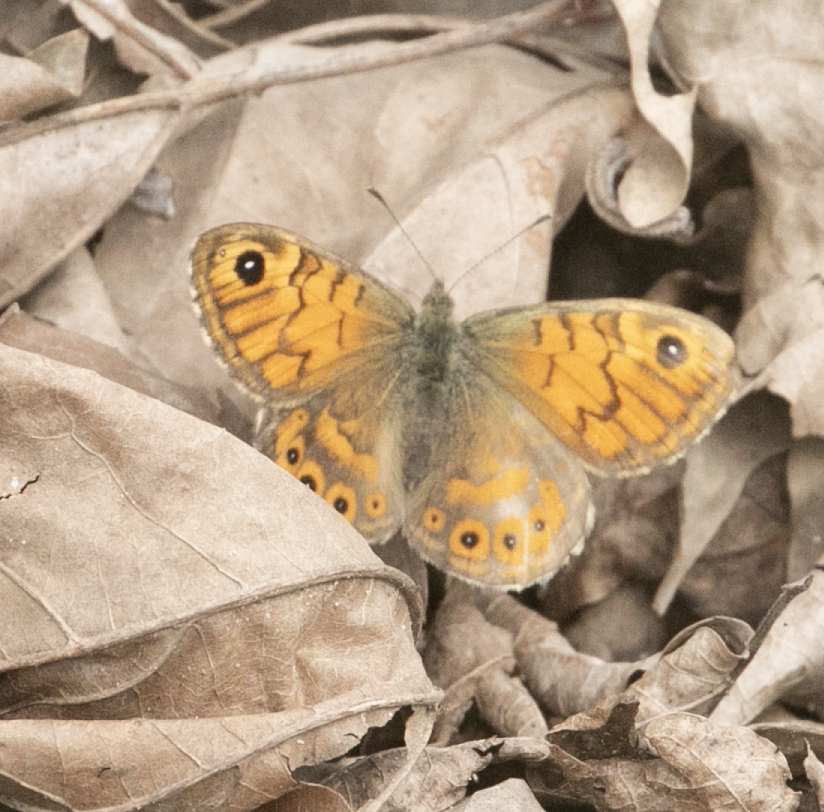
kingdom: Animalia
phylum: Arthropoda
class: Insecta
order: Lepidoptera
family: Nymphalidae
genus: Pararge
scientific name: Pararge Lasiommata megera
